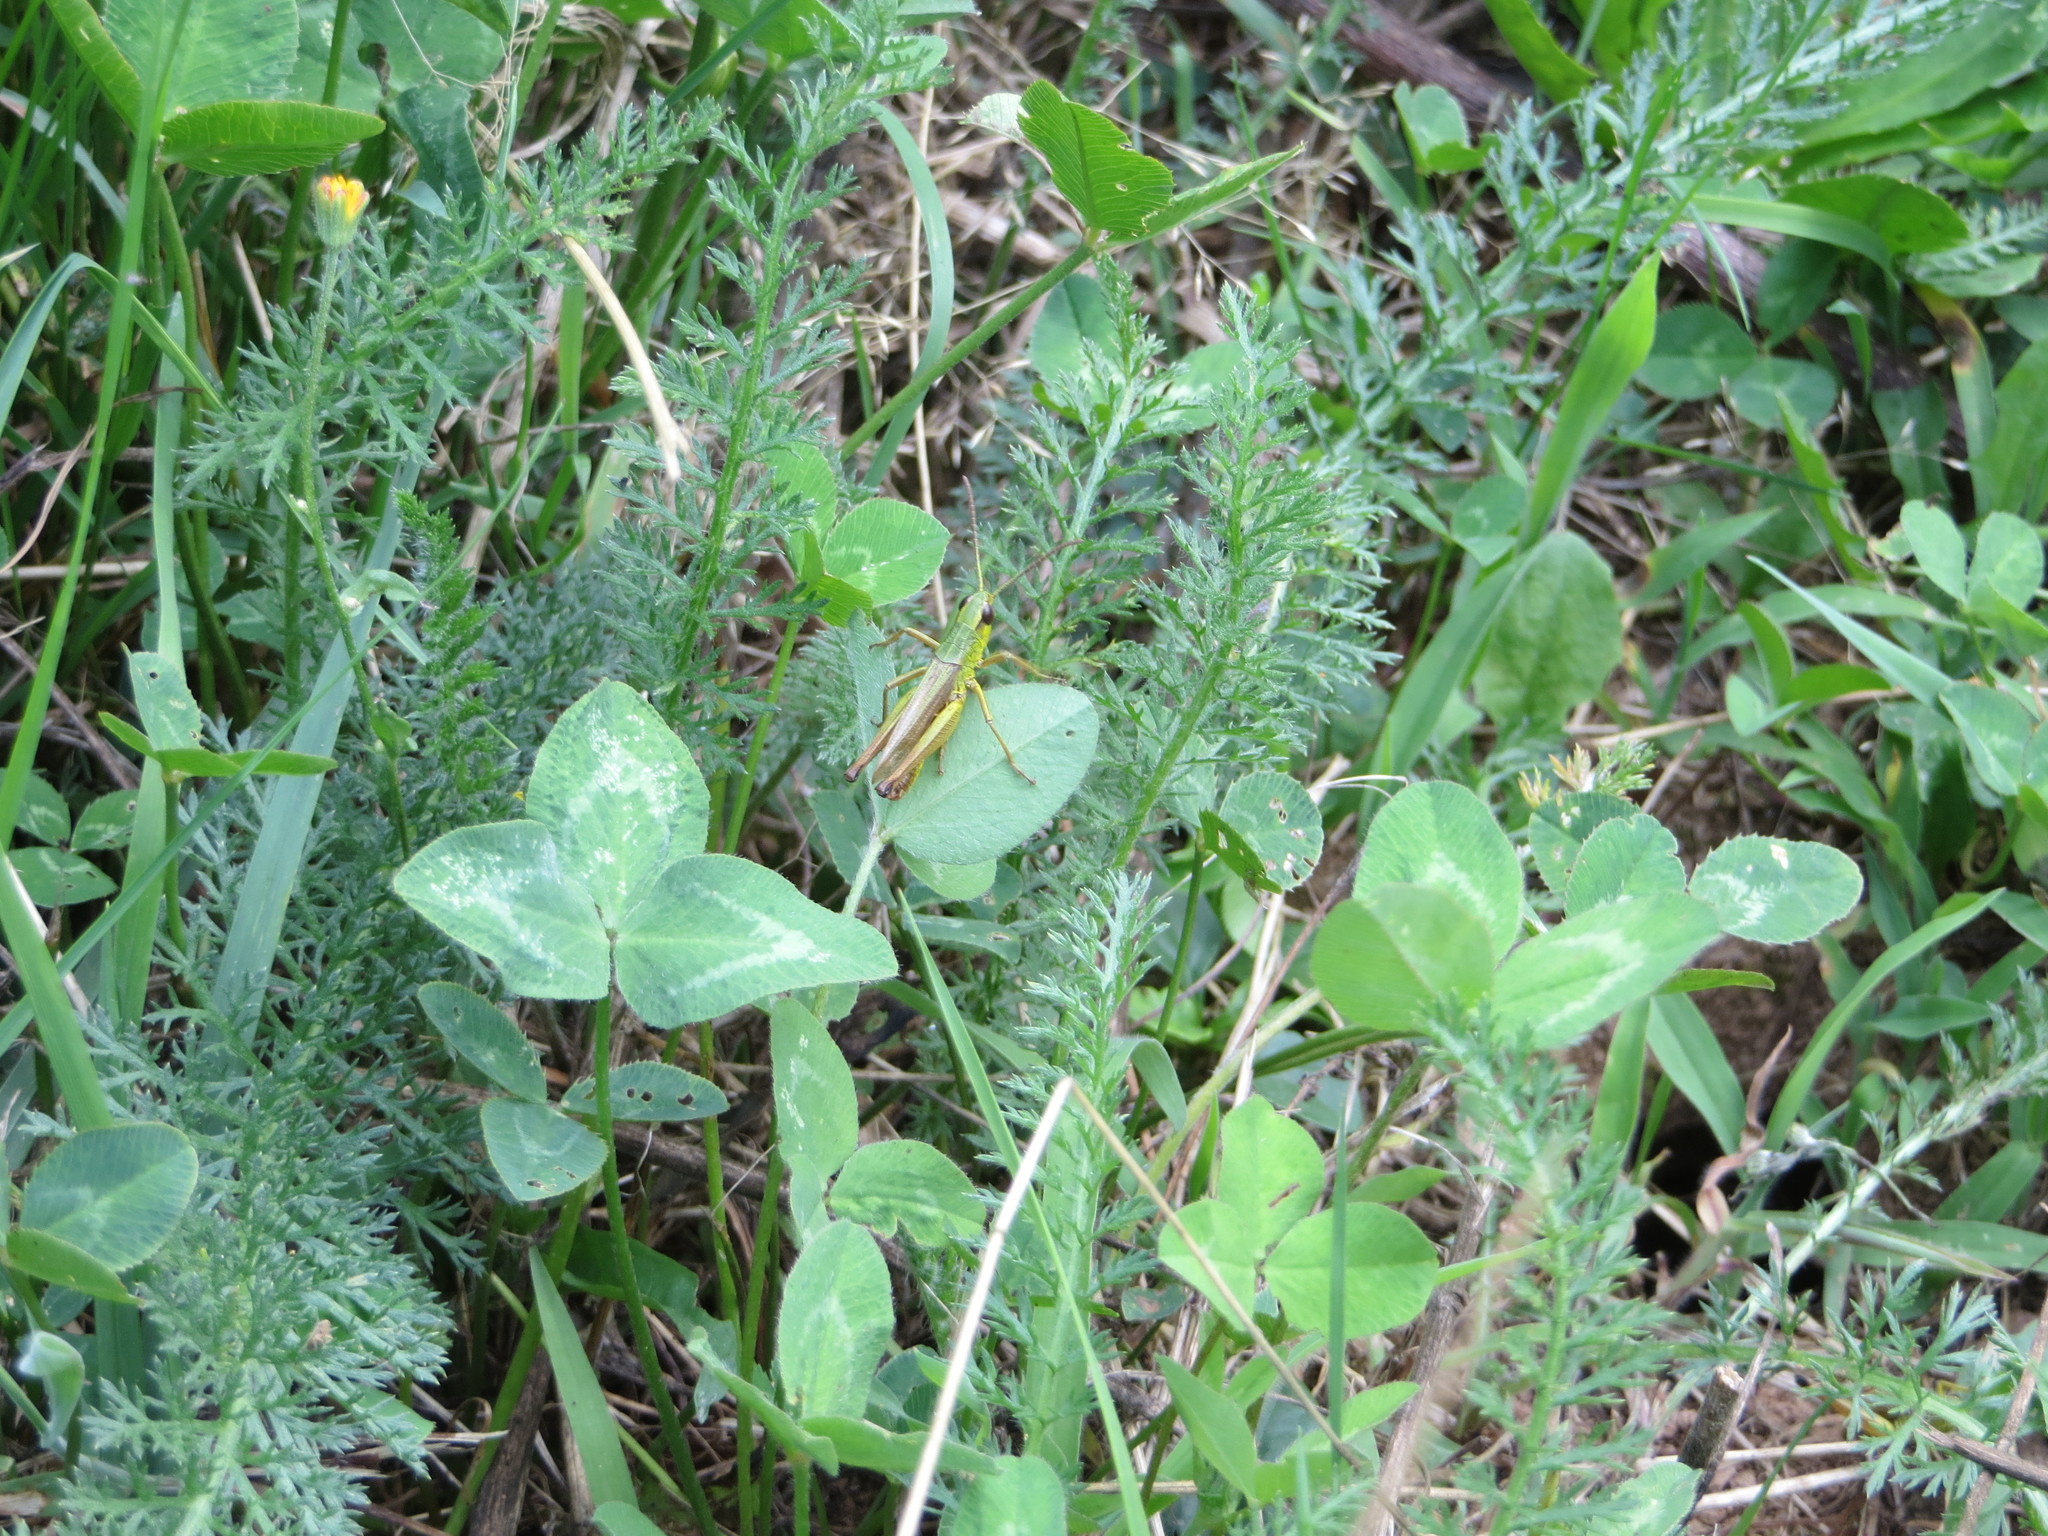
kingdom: Animalia
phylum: Arthropoda
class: Insecta
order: Orthoptera
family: Acrididae
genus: Pseudochorthippus
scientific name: Pseudochorthippus parallelus
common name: Meadow grasshopper
